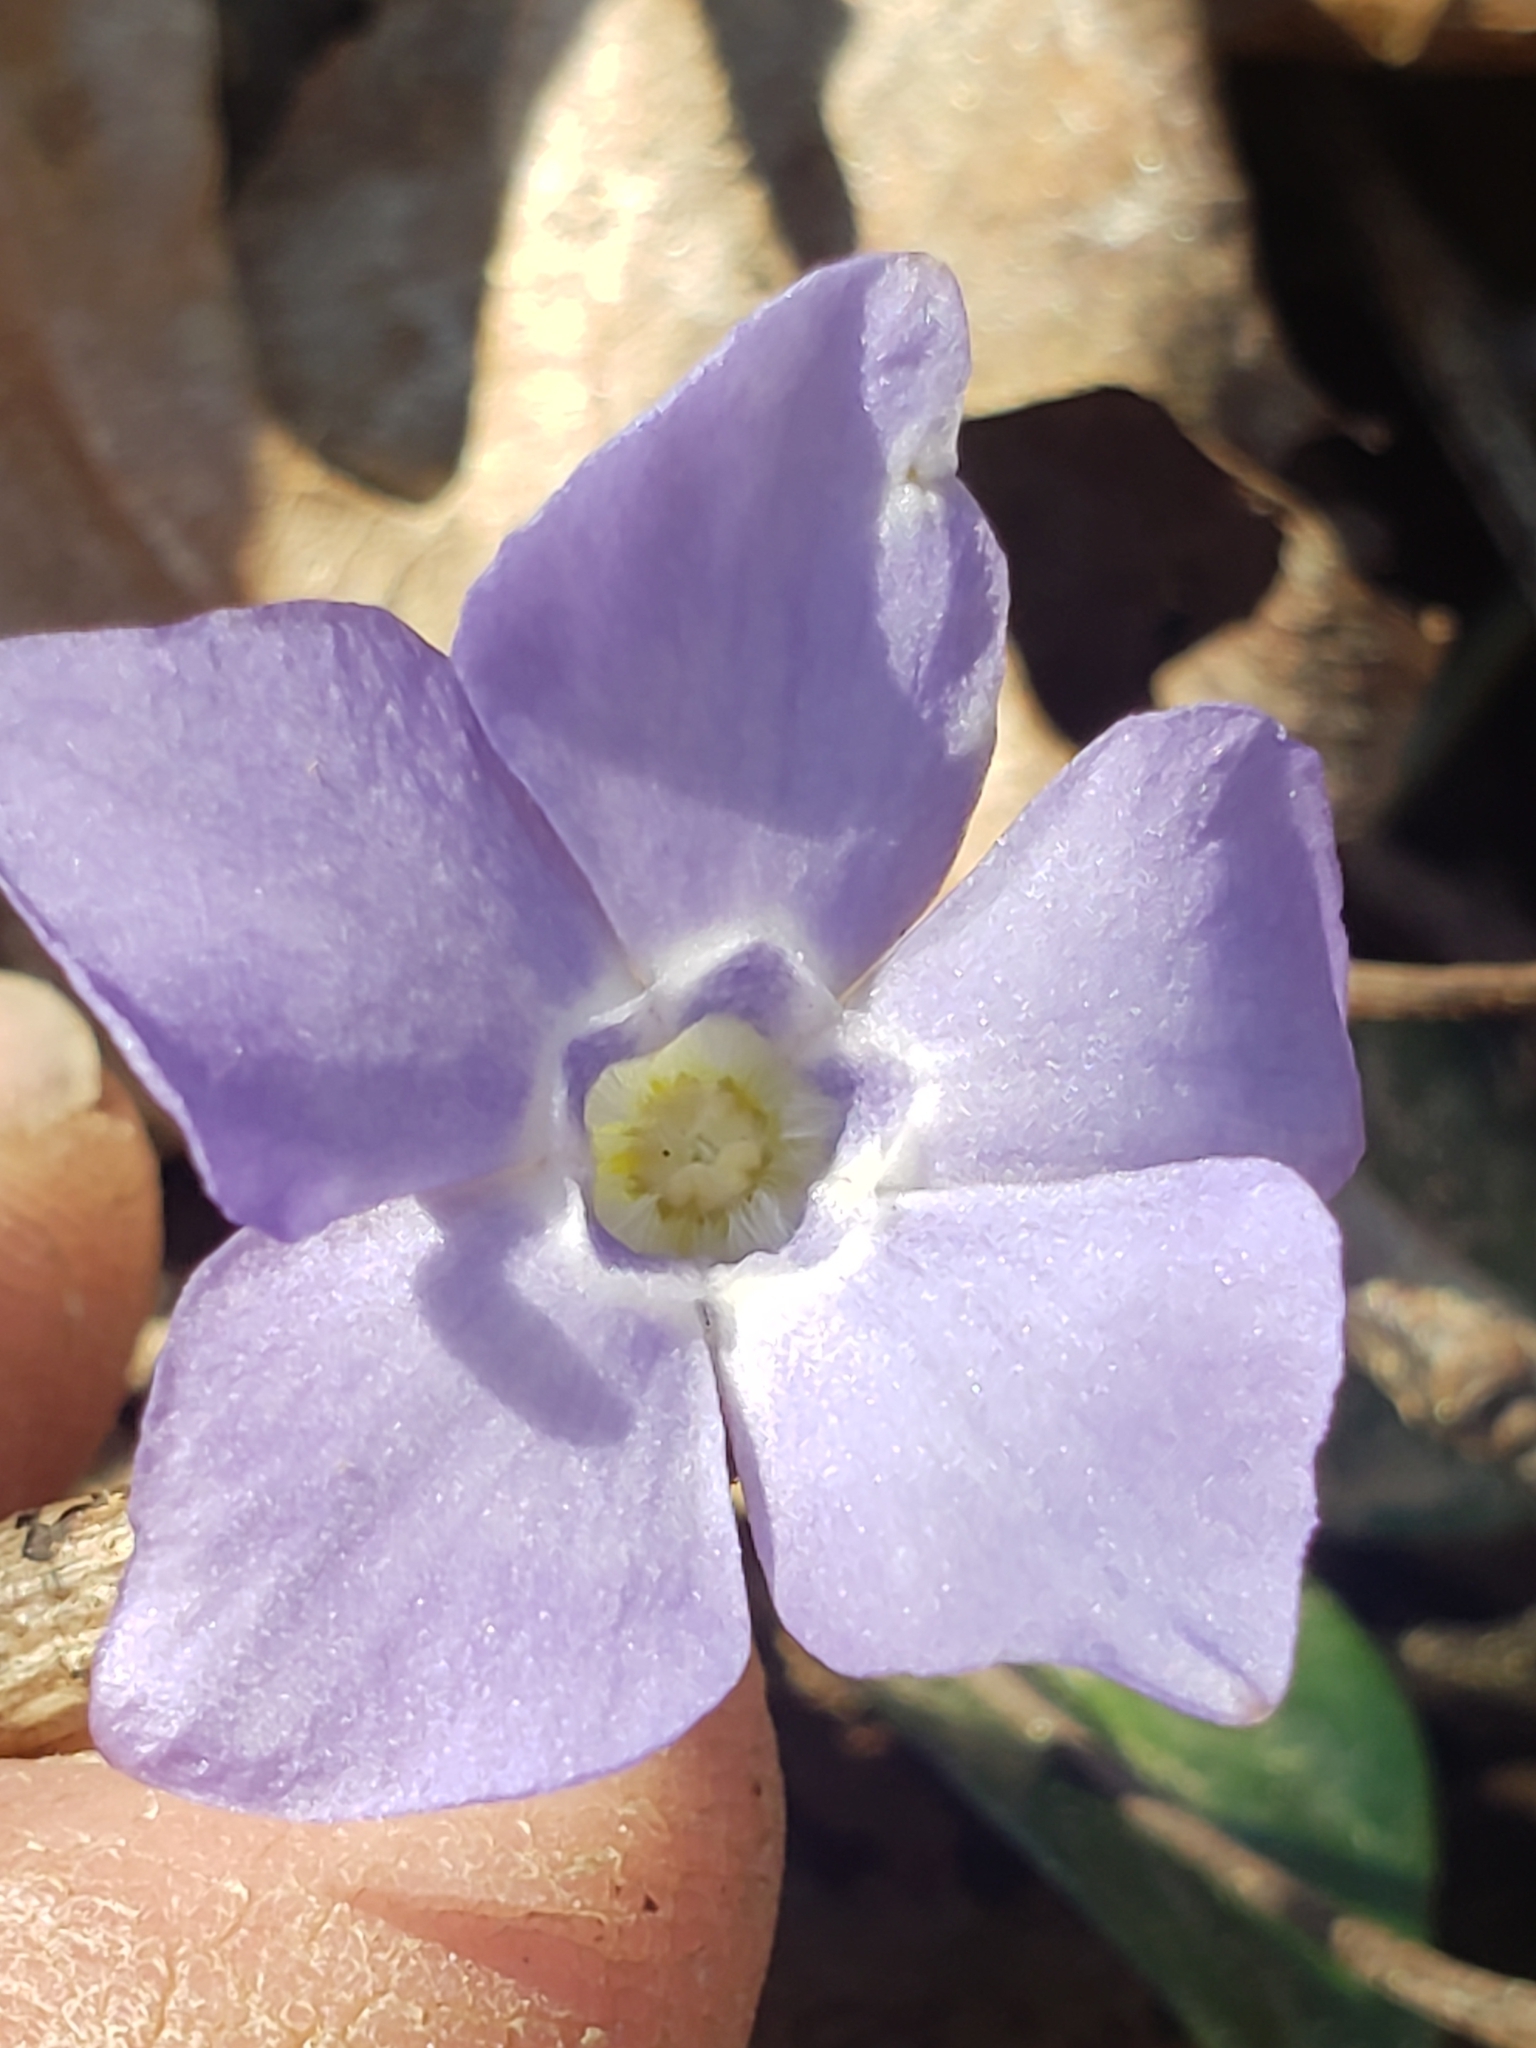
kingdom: Plantae
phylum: Tracheophyta
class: Magnoliopsida
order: Gentianales
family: Apocynaceae
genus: Vinca
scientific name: Vinca minor
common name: Lesser periwinkle
